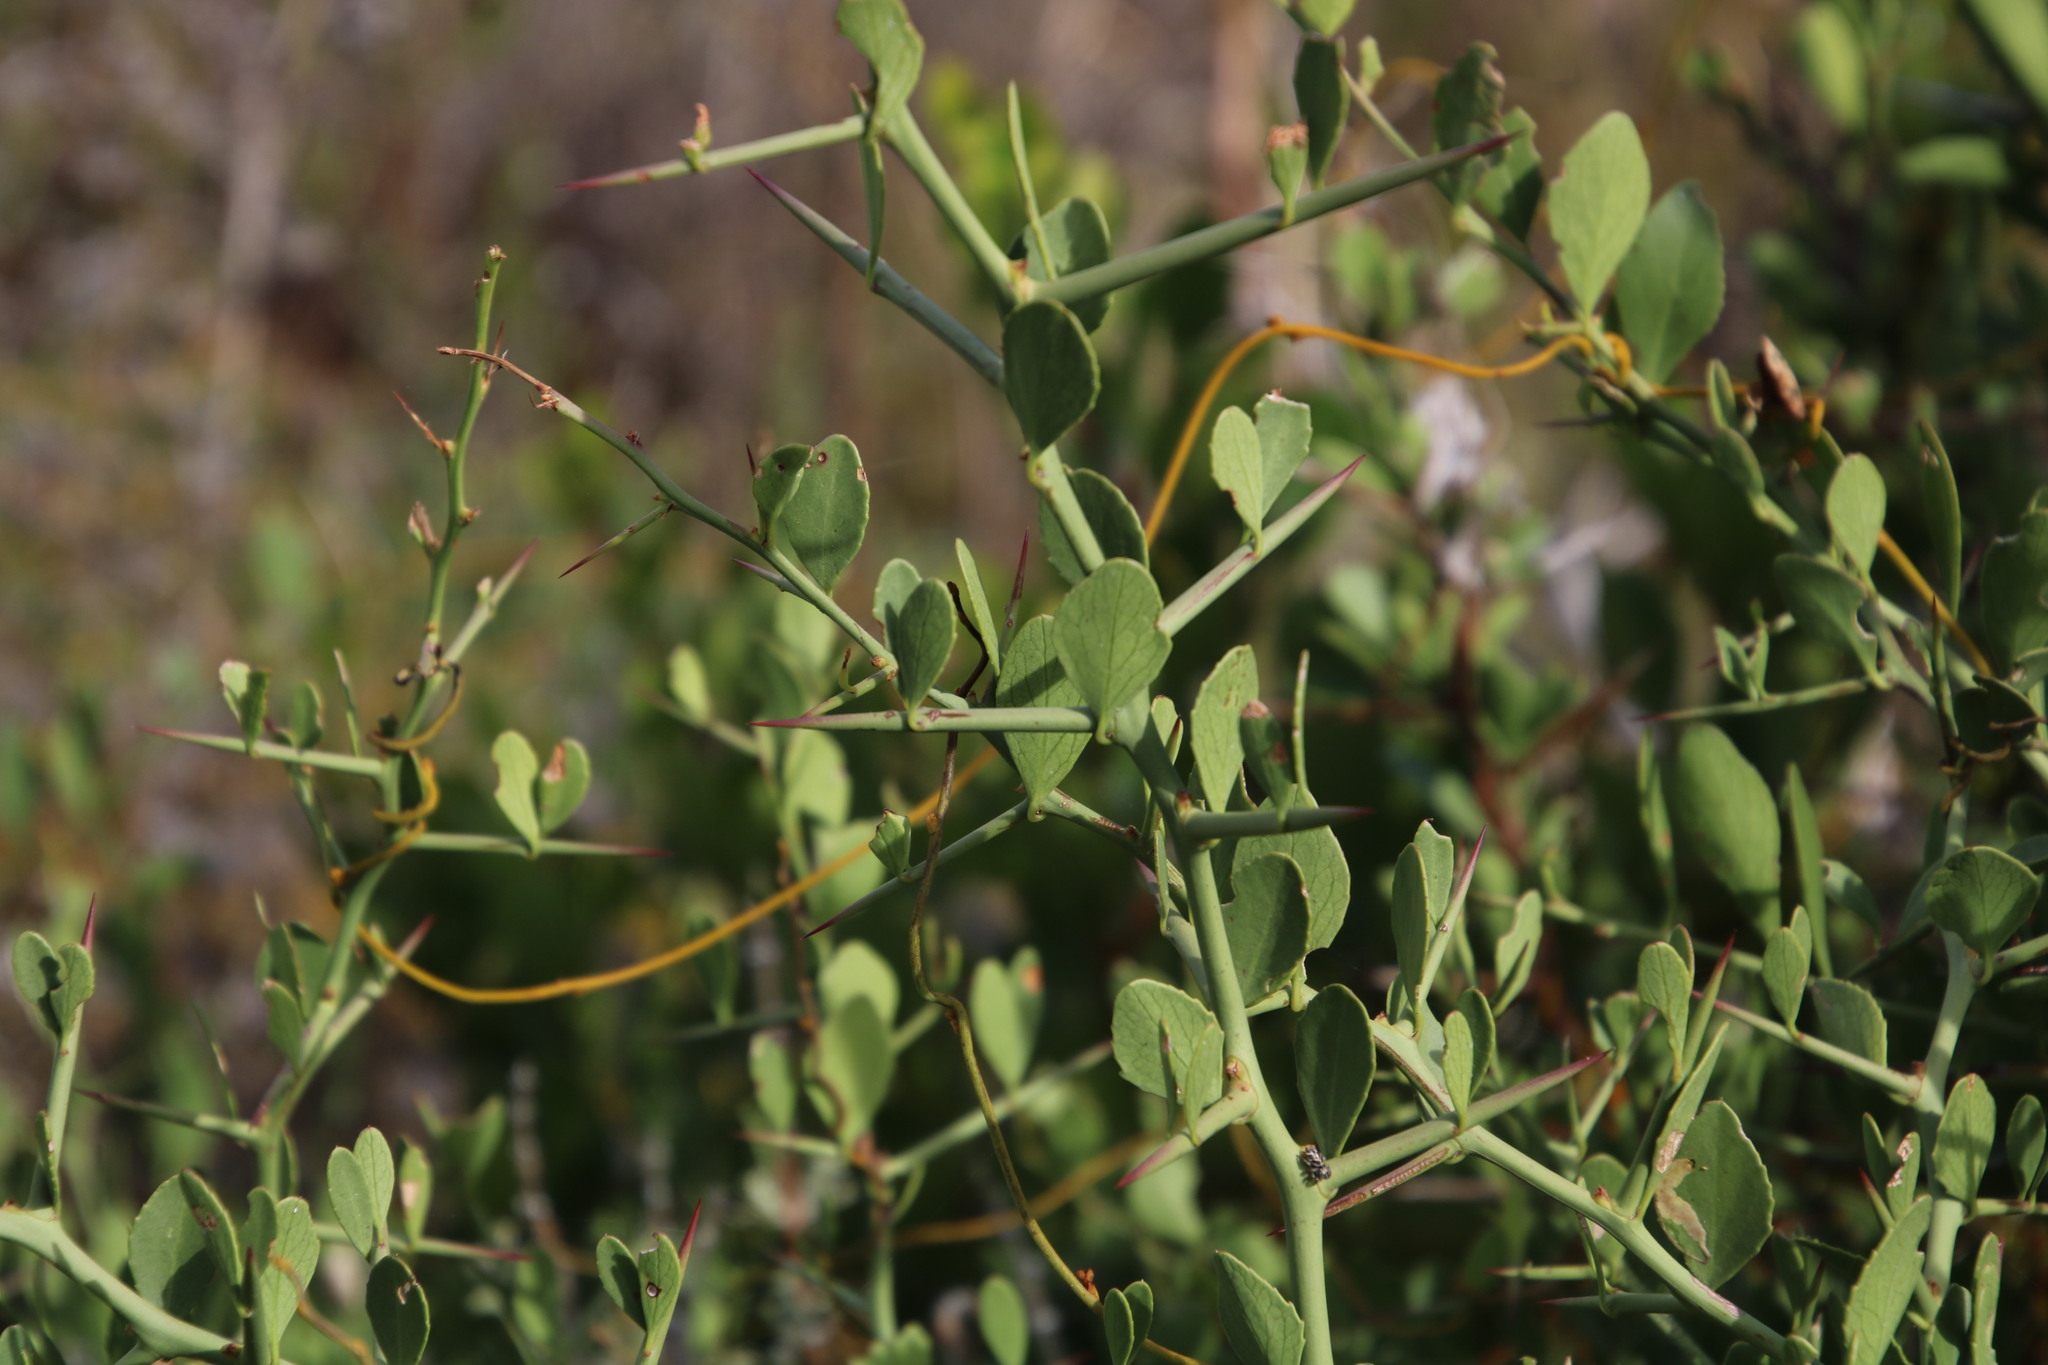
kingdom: Plantae
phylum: Tracheophyta
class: Magnoliopsida
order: Celastrales
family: Celastraceae
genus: Gymnosporia
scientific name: Gymnosporia buxifolia
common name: Common spike-thorn
